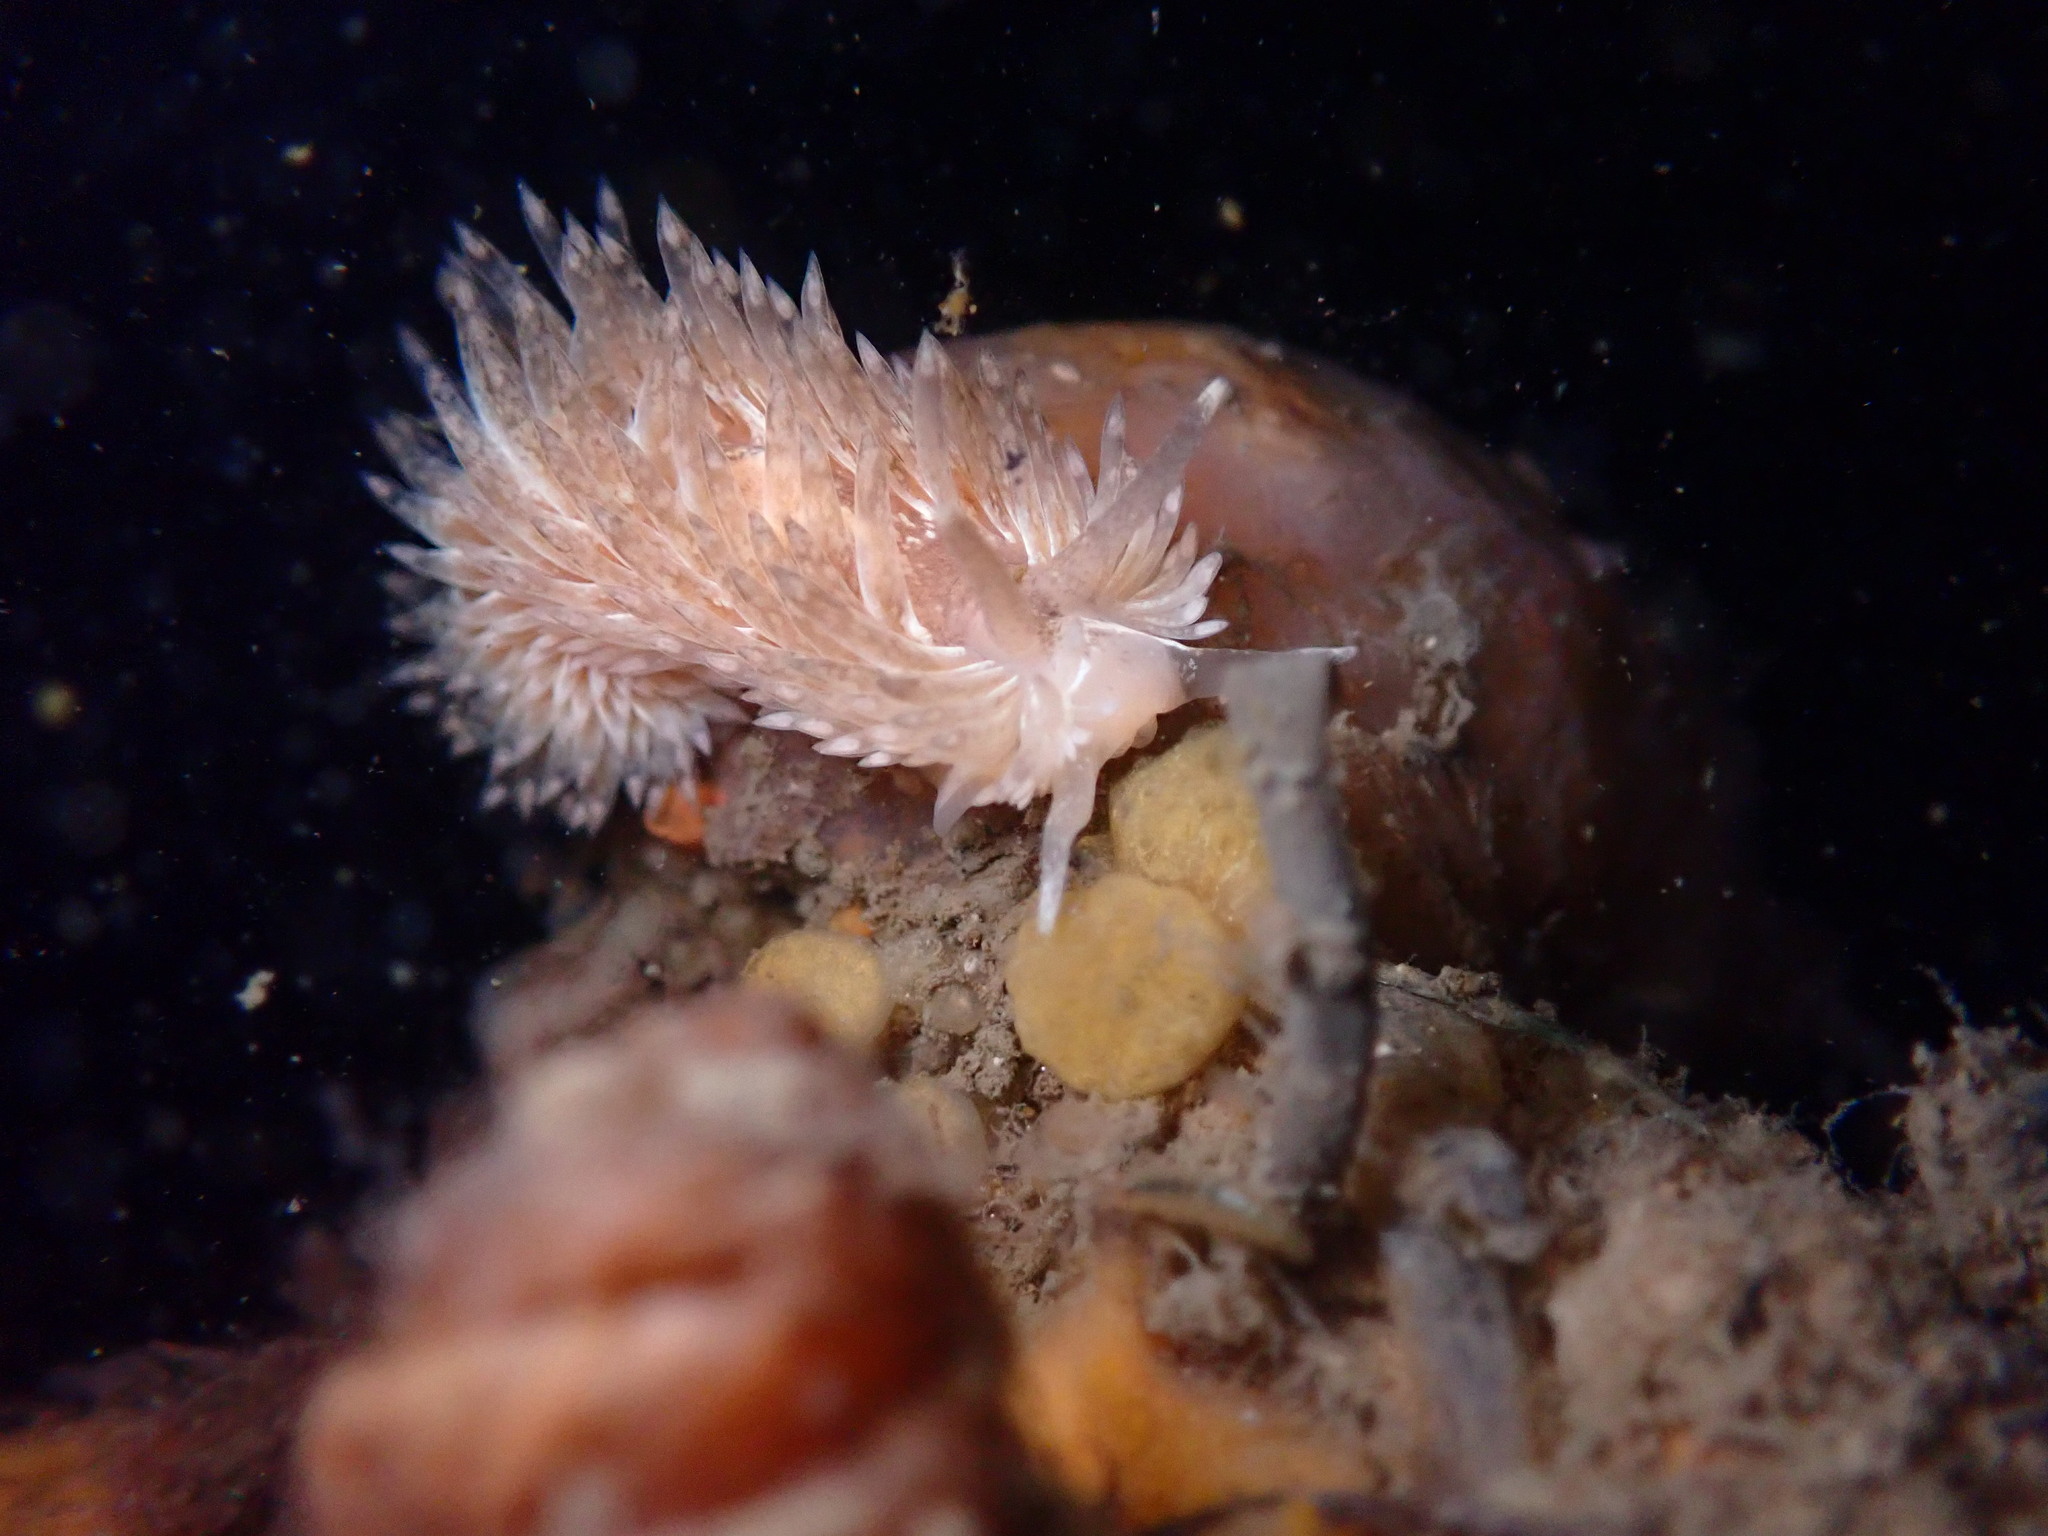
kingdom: Animalia
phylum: Mollusca
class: Gastropoda
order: Nudibranchia
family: Aeolidiidae
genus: Aeolidia
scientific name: Aeolidia loui
